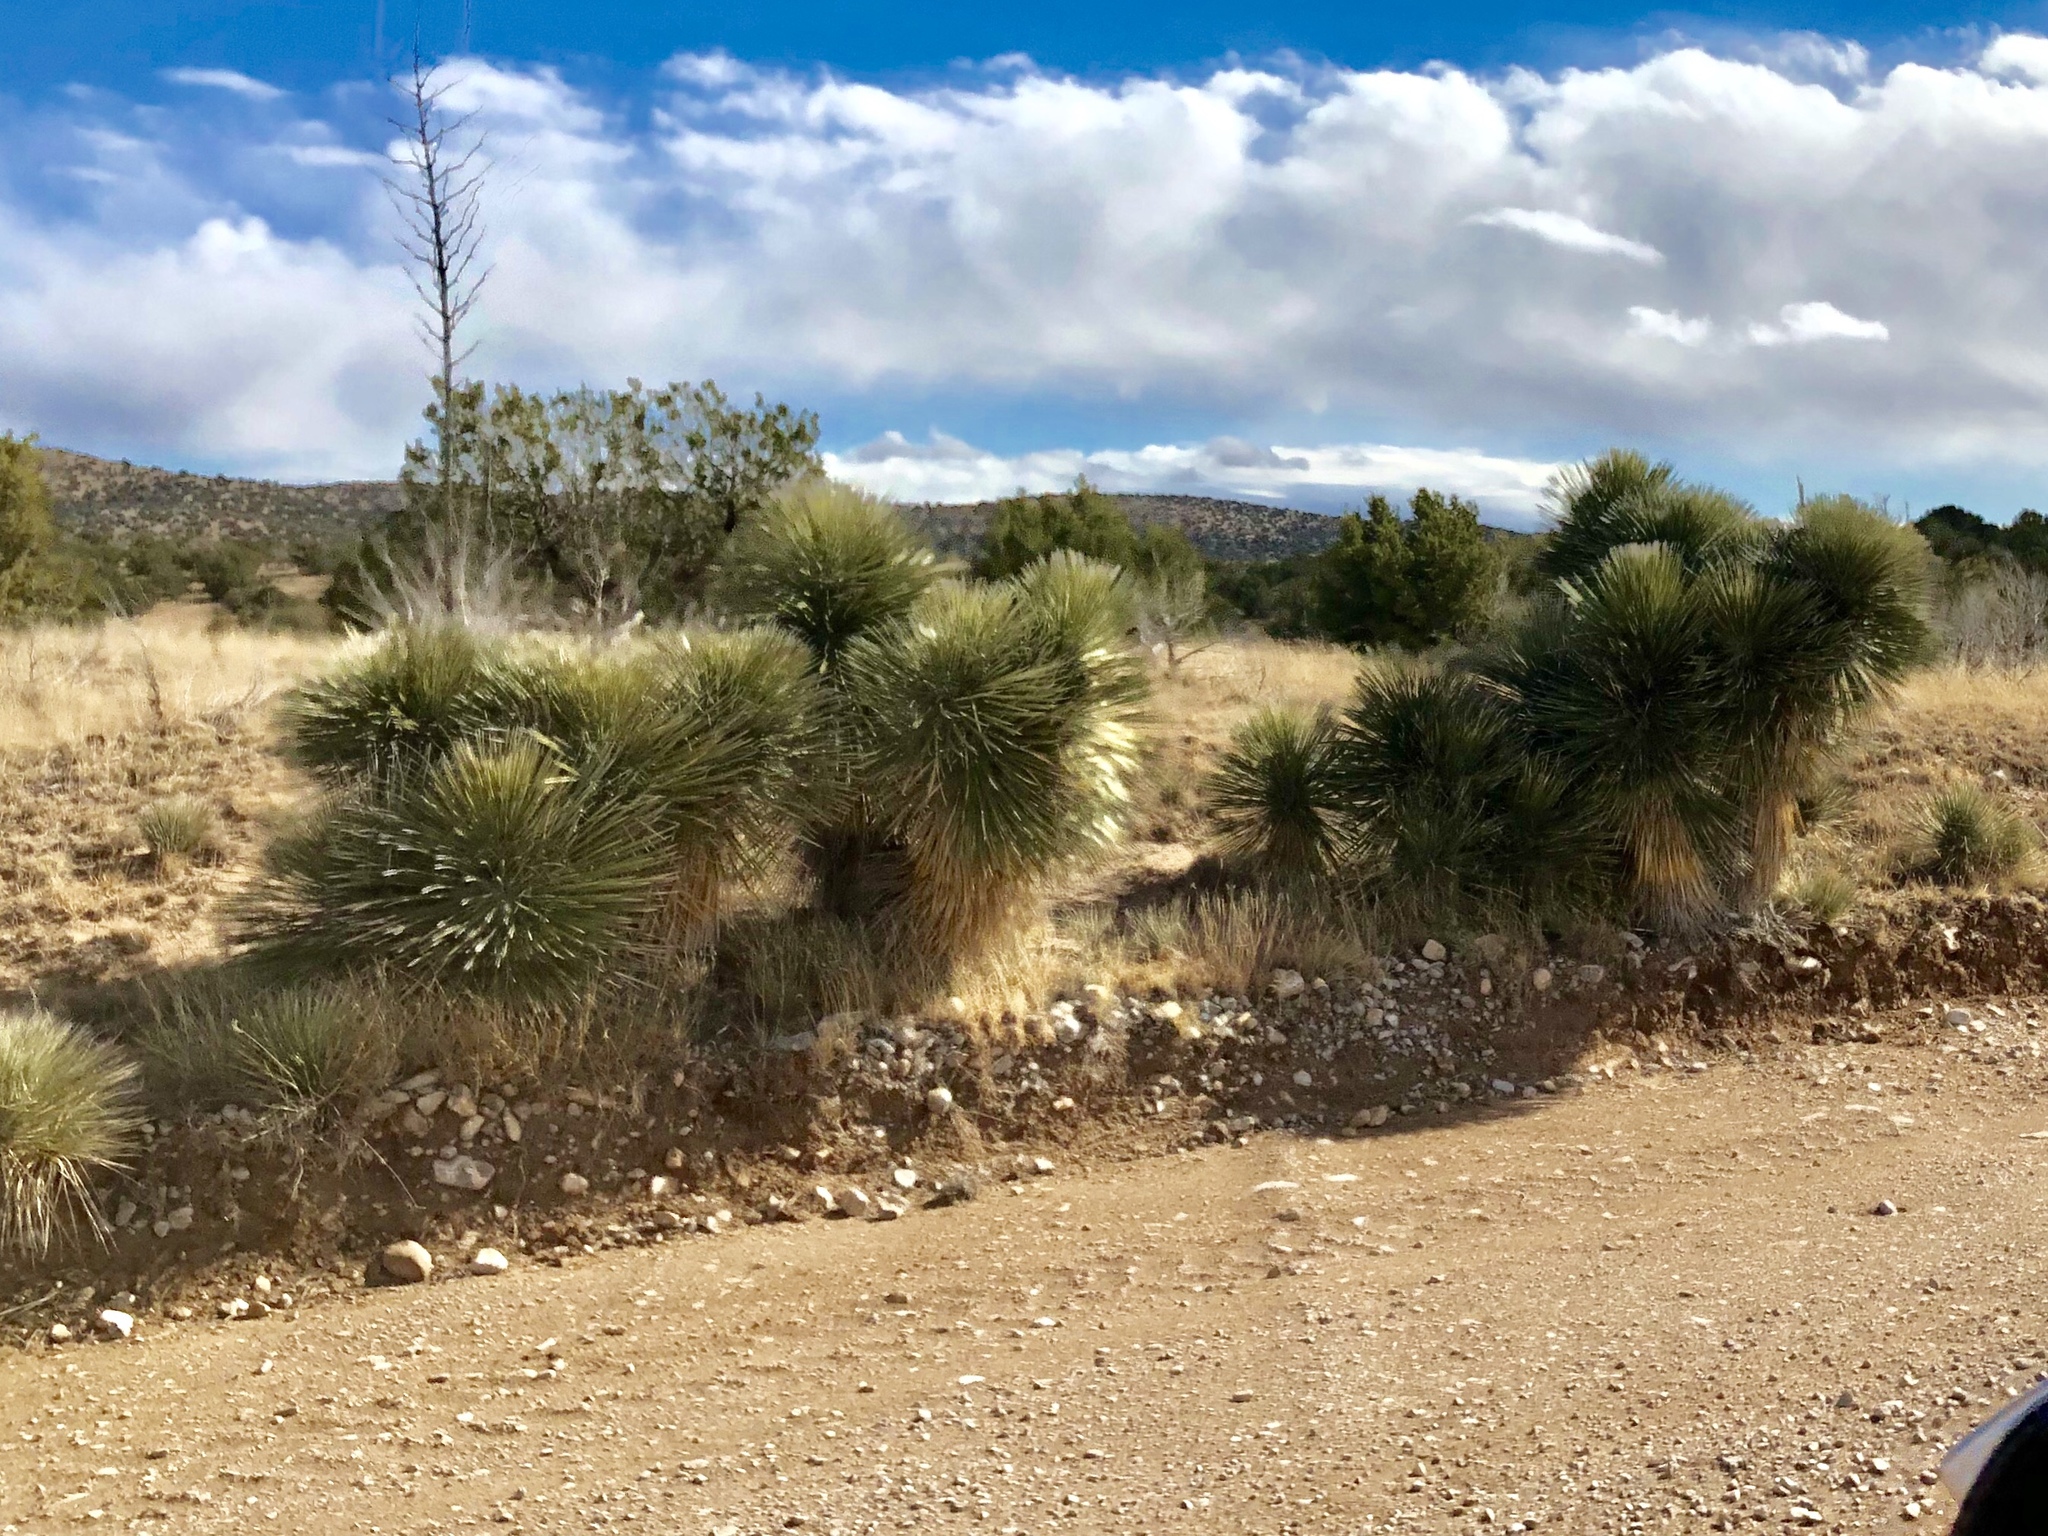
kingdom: Plantae
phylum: Tracheophyta
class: Liliopsida
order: Asparagales
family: Asparagaceae
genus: Yucca
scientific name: Yucca elata
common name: Palmella
